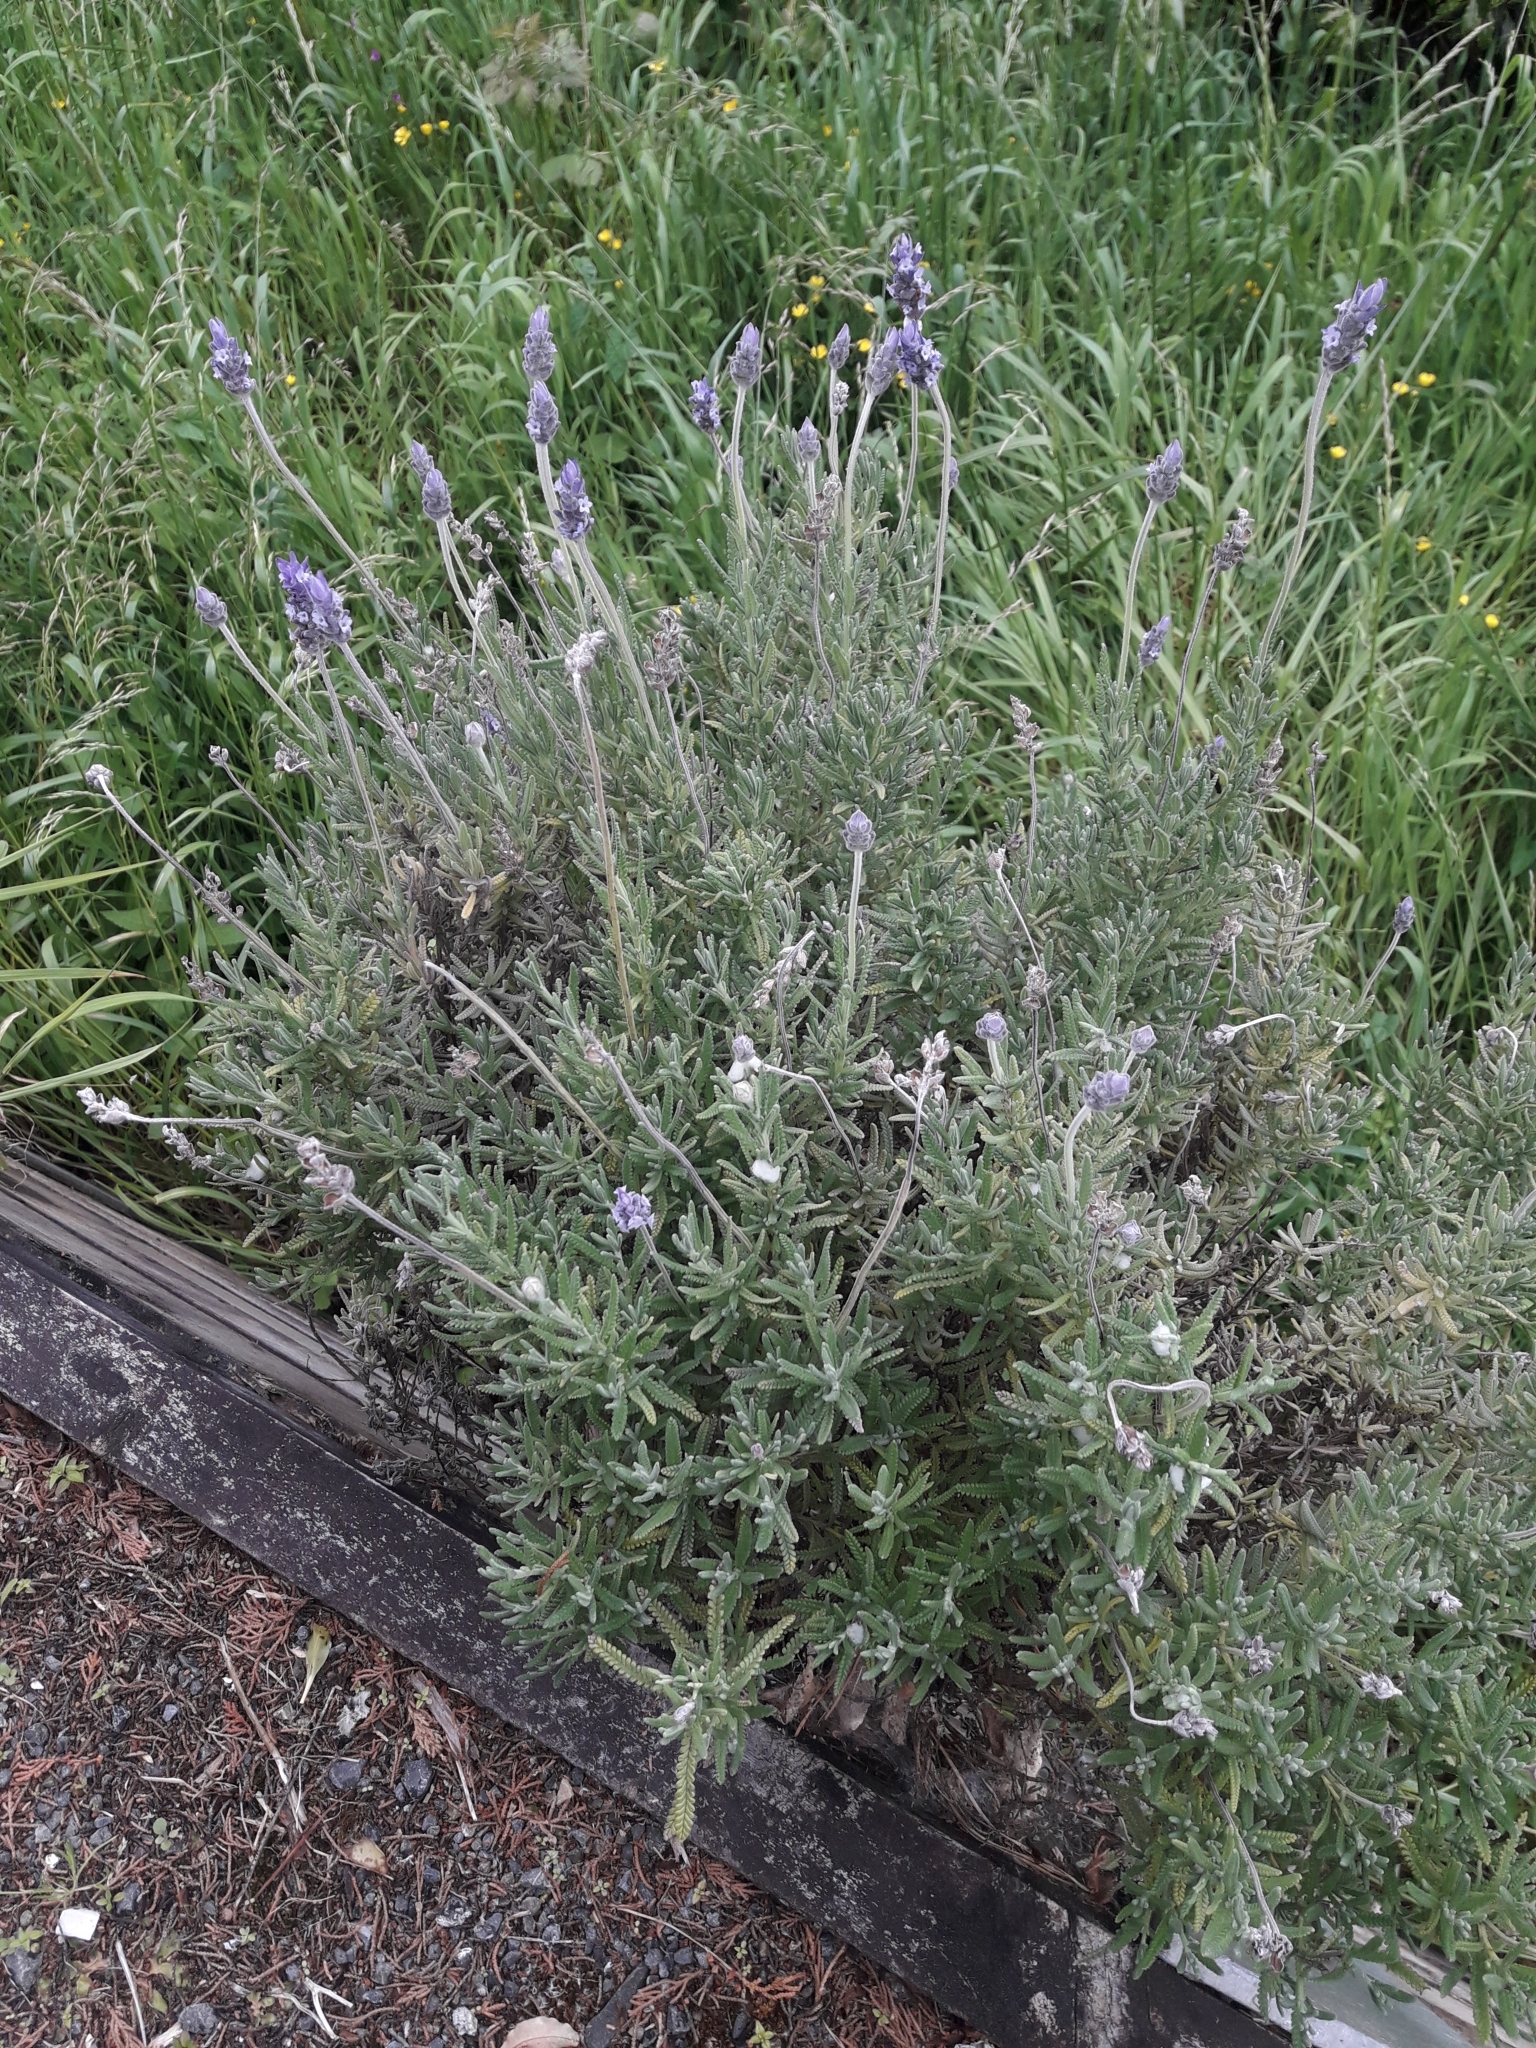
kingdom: Plantae
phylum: Tracheophyta
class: Magnoliopsida
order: Lamiales
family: Lamiaceae
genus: Lavandula
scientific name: Lavandula dentata
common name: French lavender
